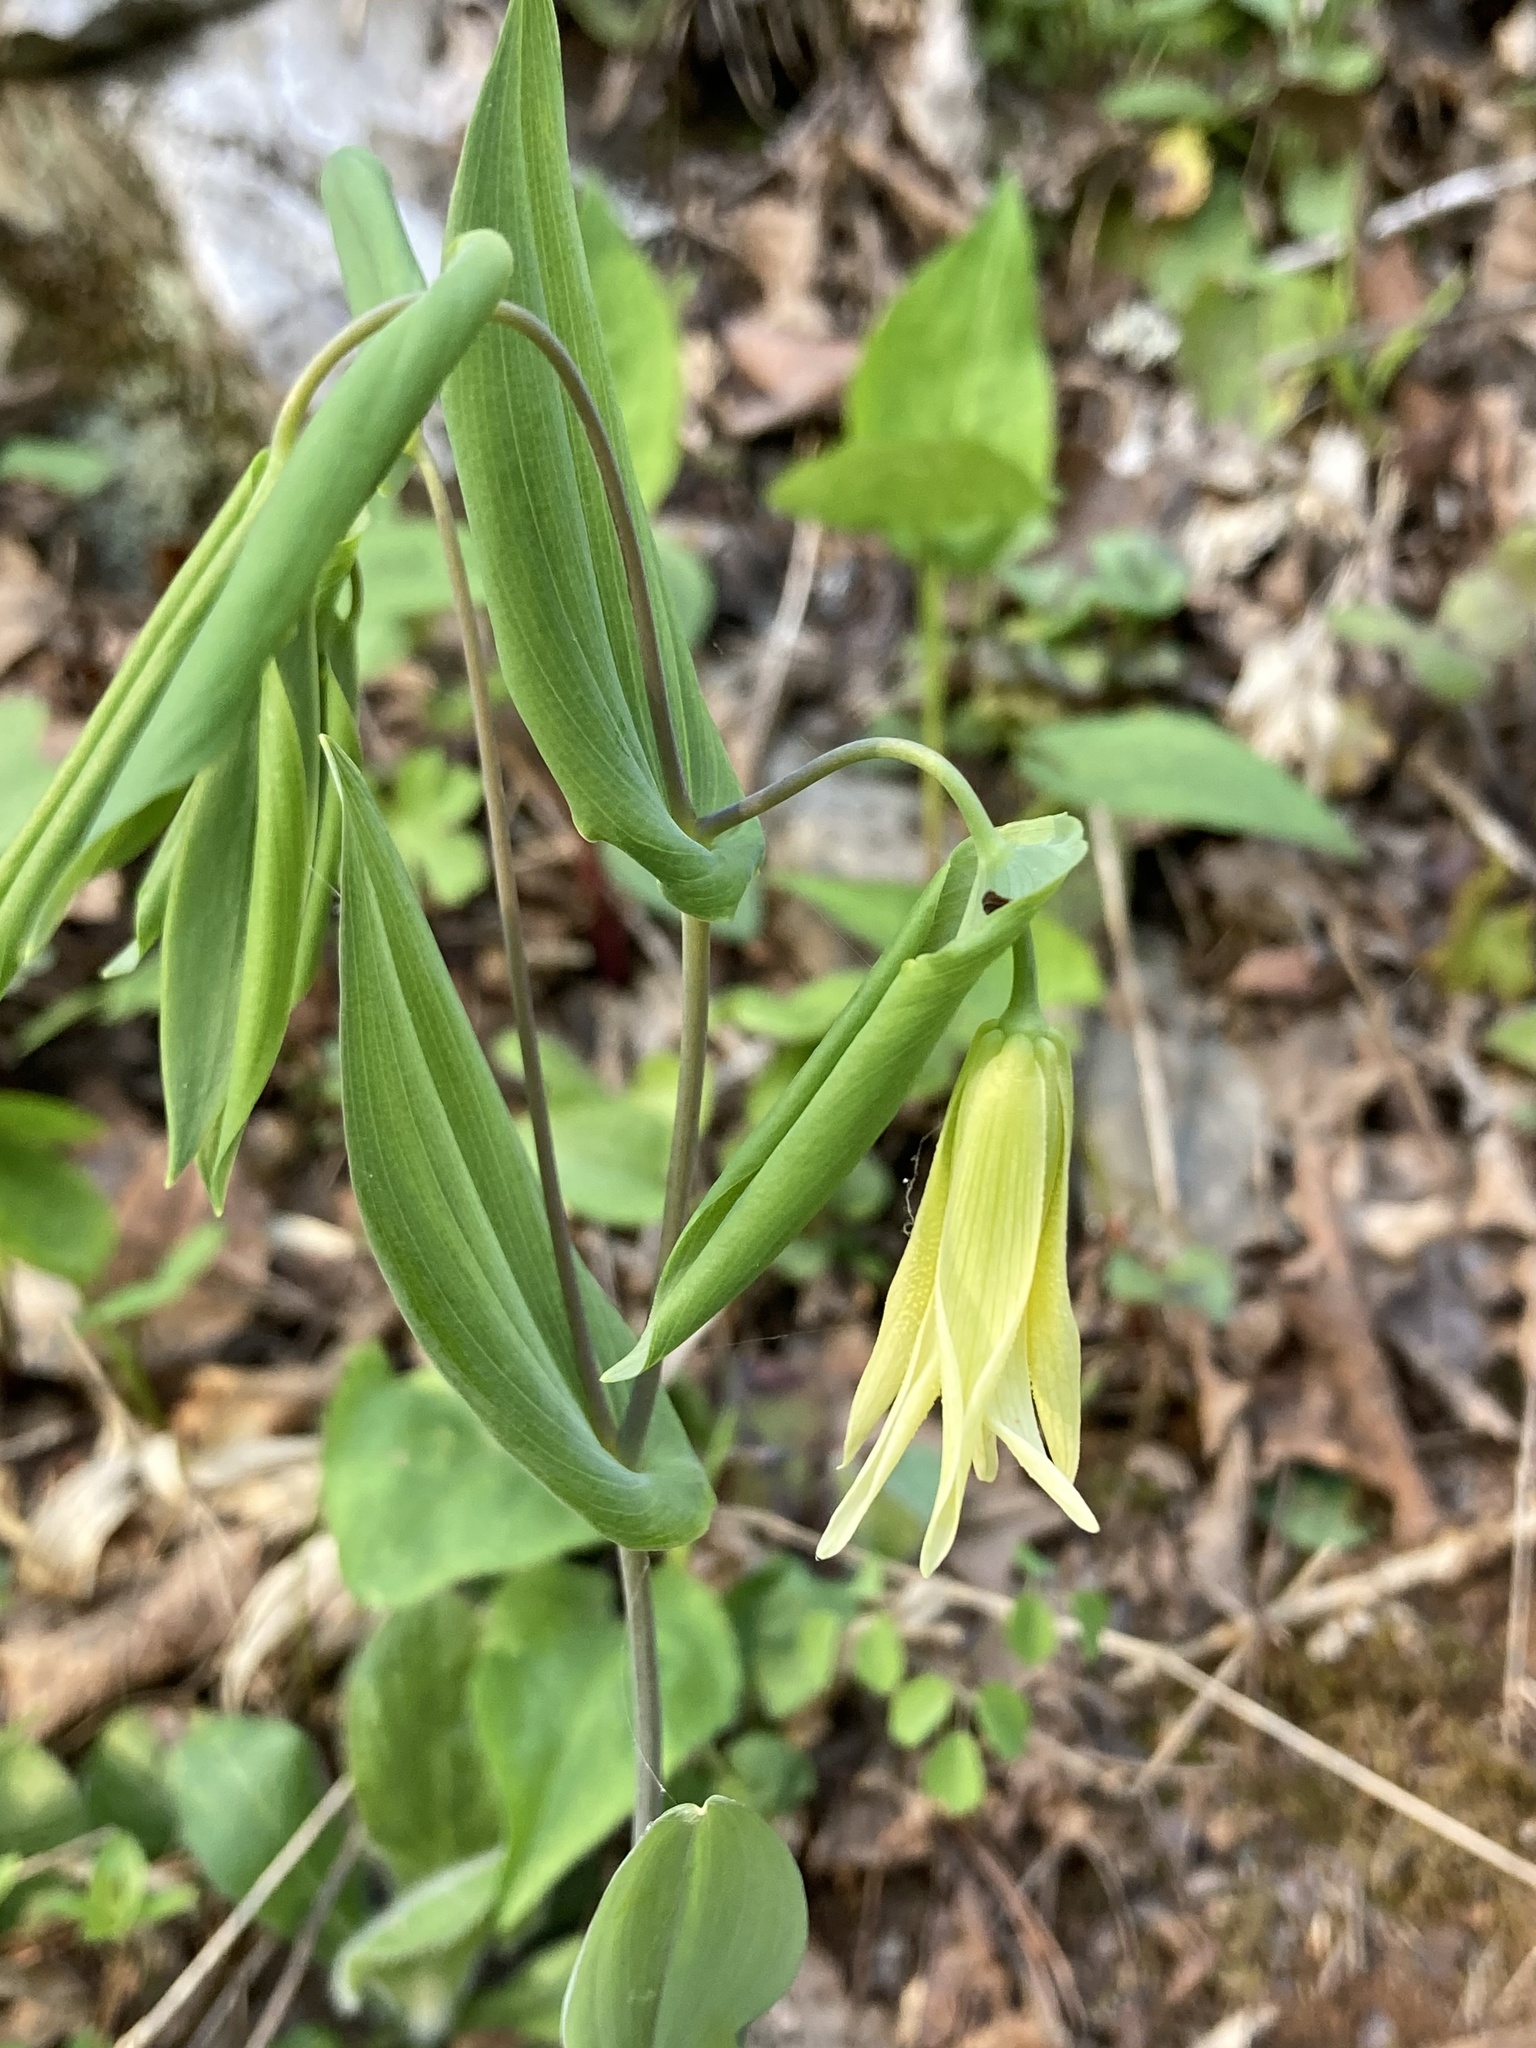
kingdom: Plantae
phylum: Tracheophyta
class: Liliopsida
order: Liliales
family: Colchicaceae
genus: Uvularia
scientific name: Uvularia perfoliata
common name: Perfoliate bellwort
